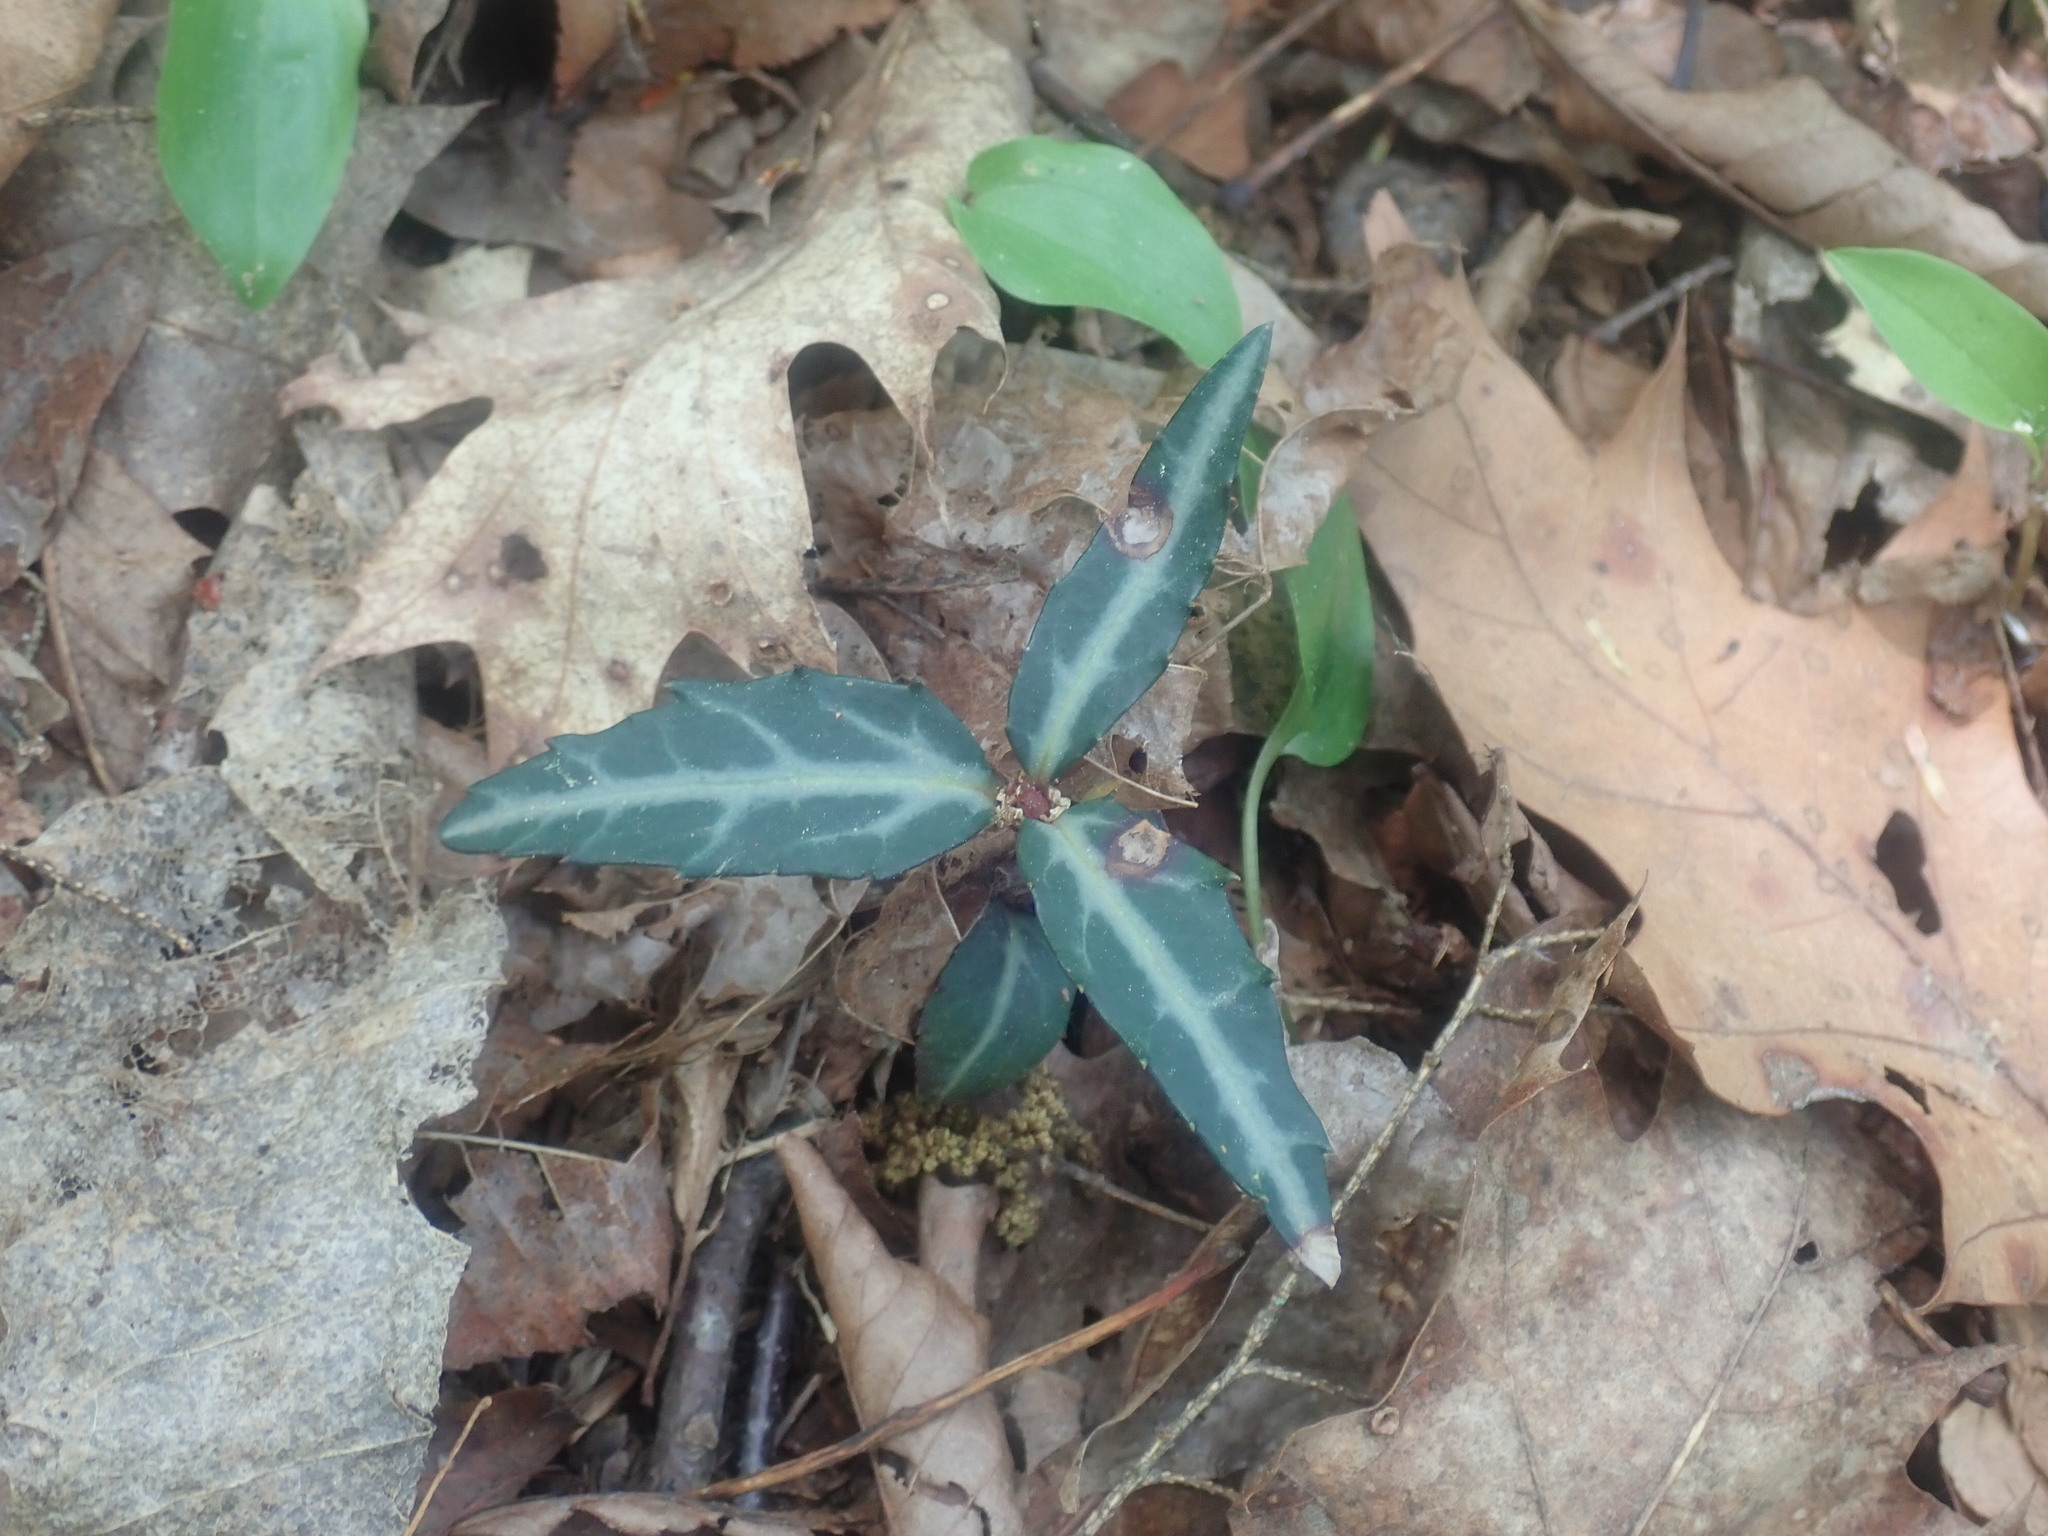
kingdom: Plantae
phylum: Tracheophyta
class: Magnoliopsida
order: Ericales
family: Ericaceae
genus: Chimaphila
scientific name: Chimaphila maculata
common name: Spotted pipsissewa
